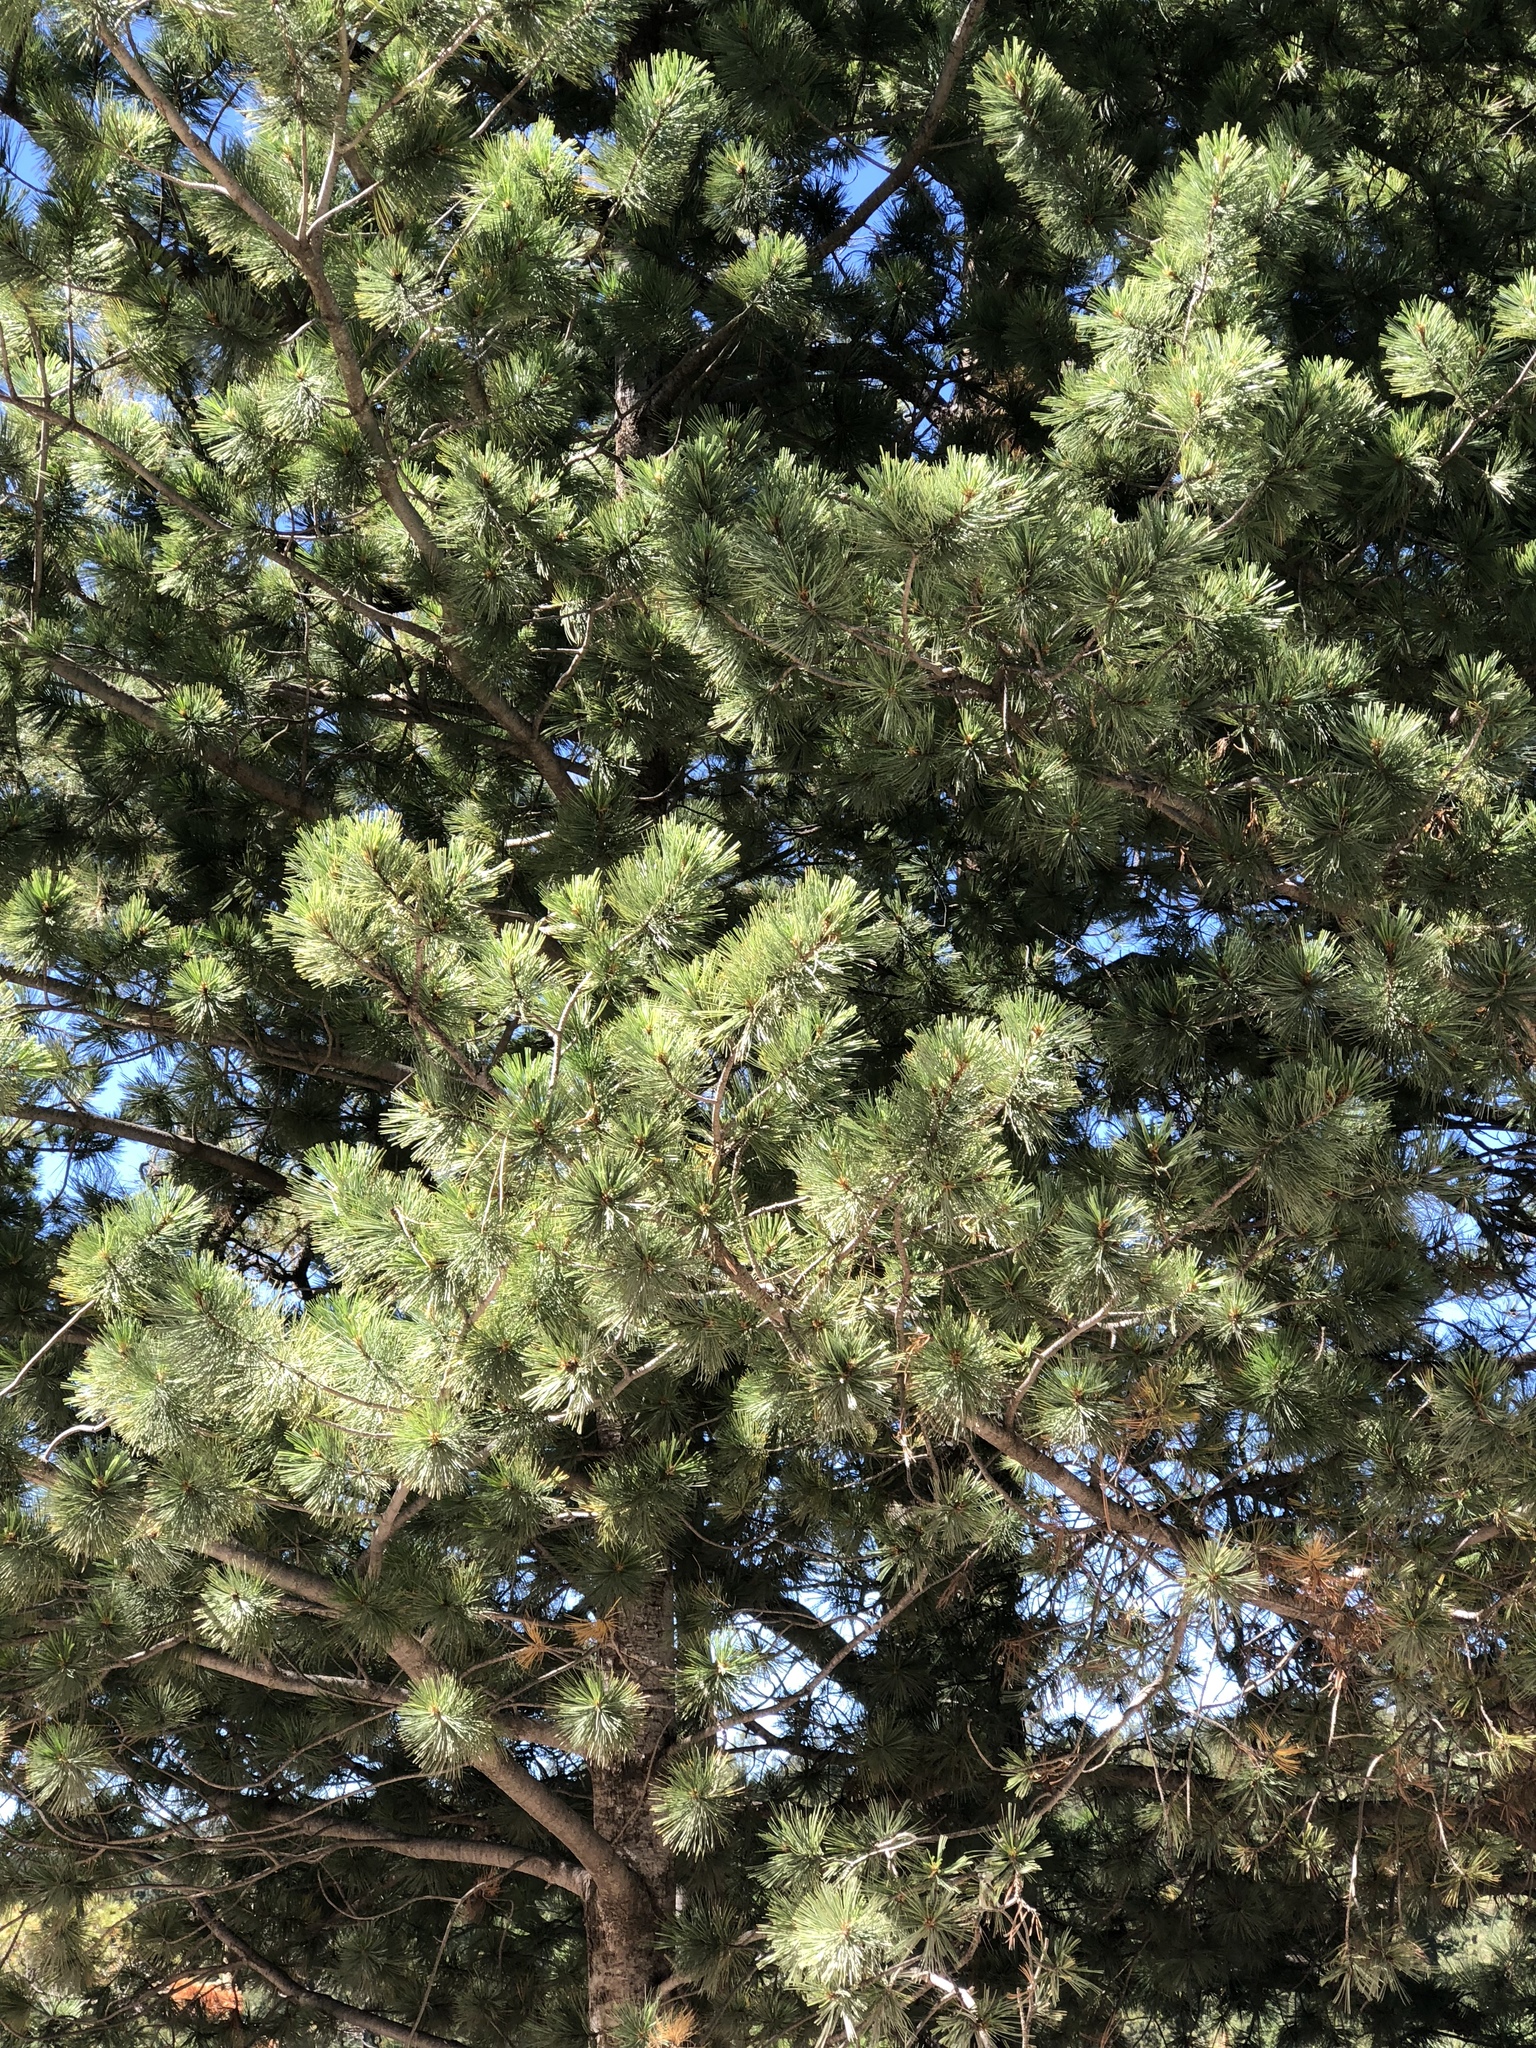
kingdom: Plantae
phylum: Tracheophyta
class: Pinopsida
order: Pinales
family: Pinaceae
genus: Pinus
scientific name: Pinus strobiformis
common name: Southwestern white pine
